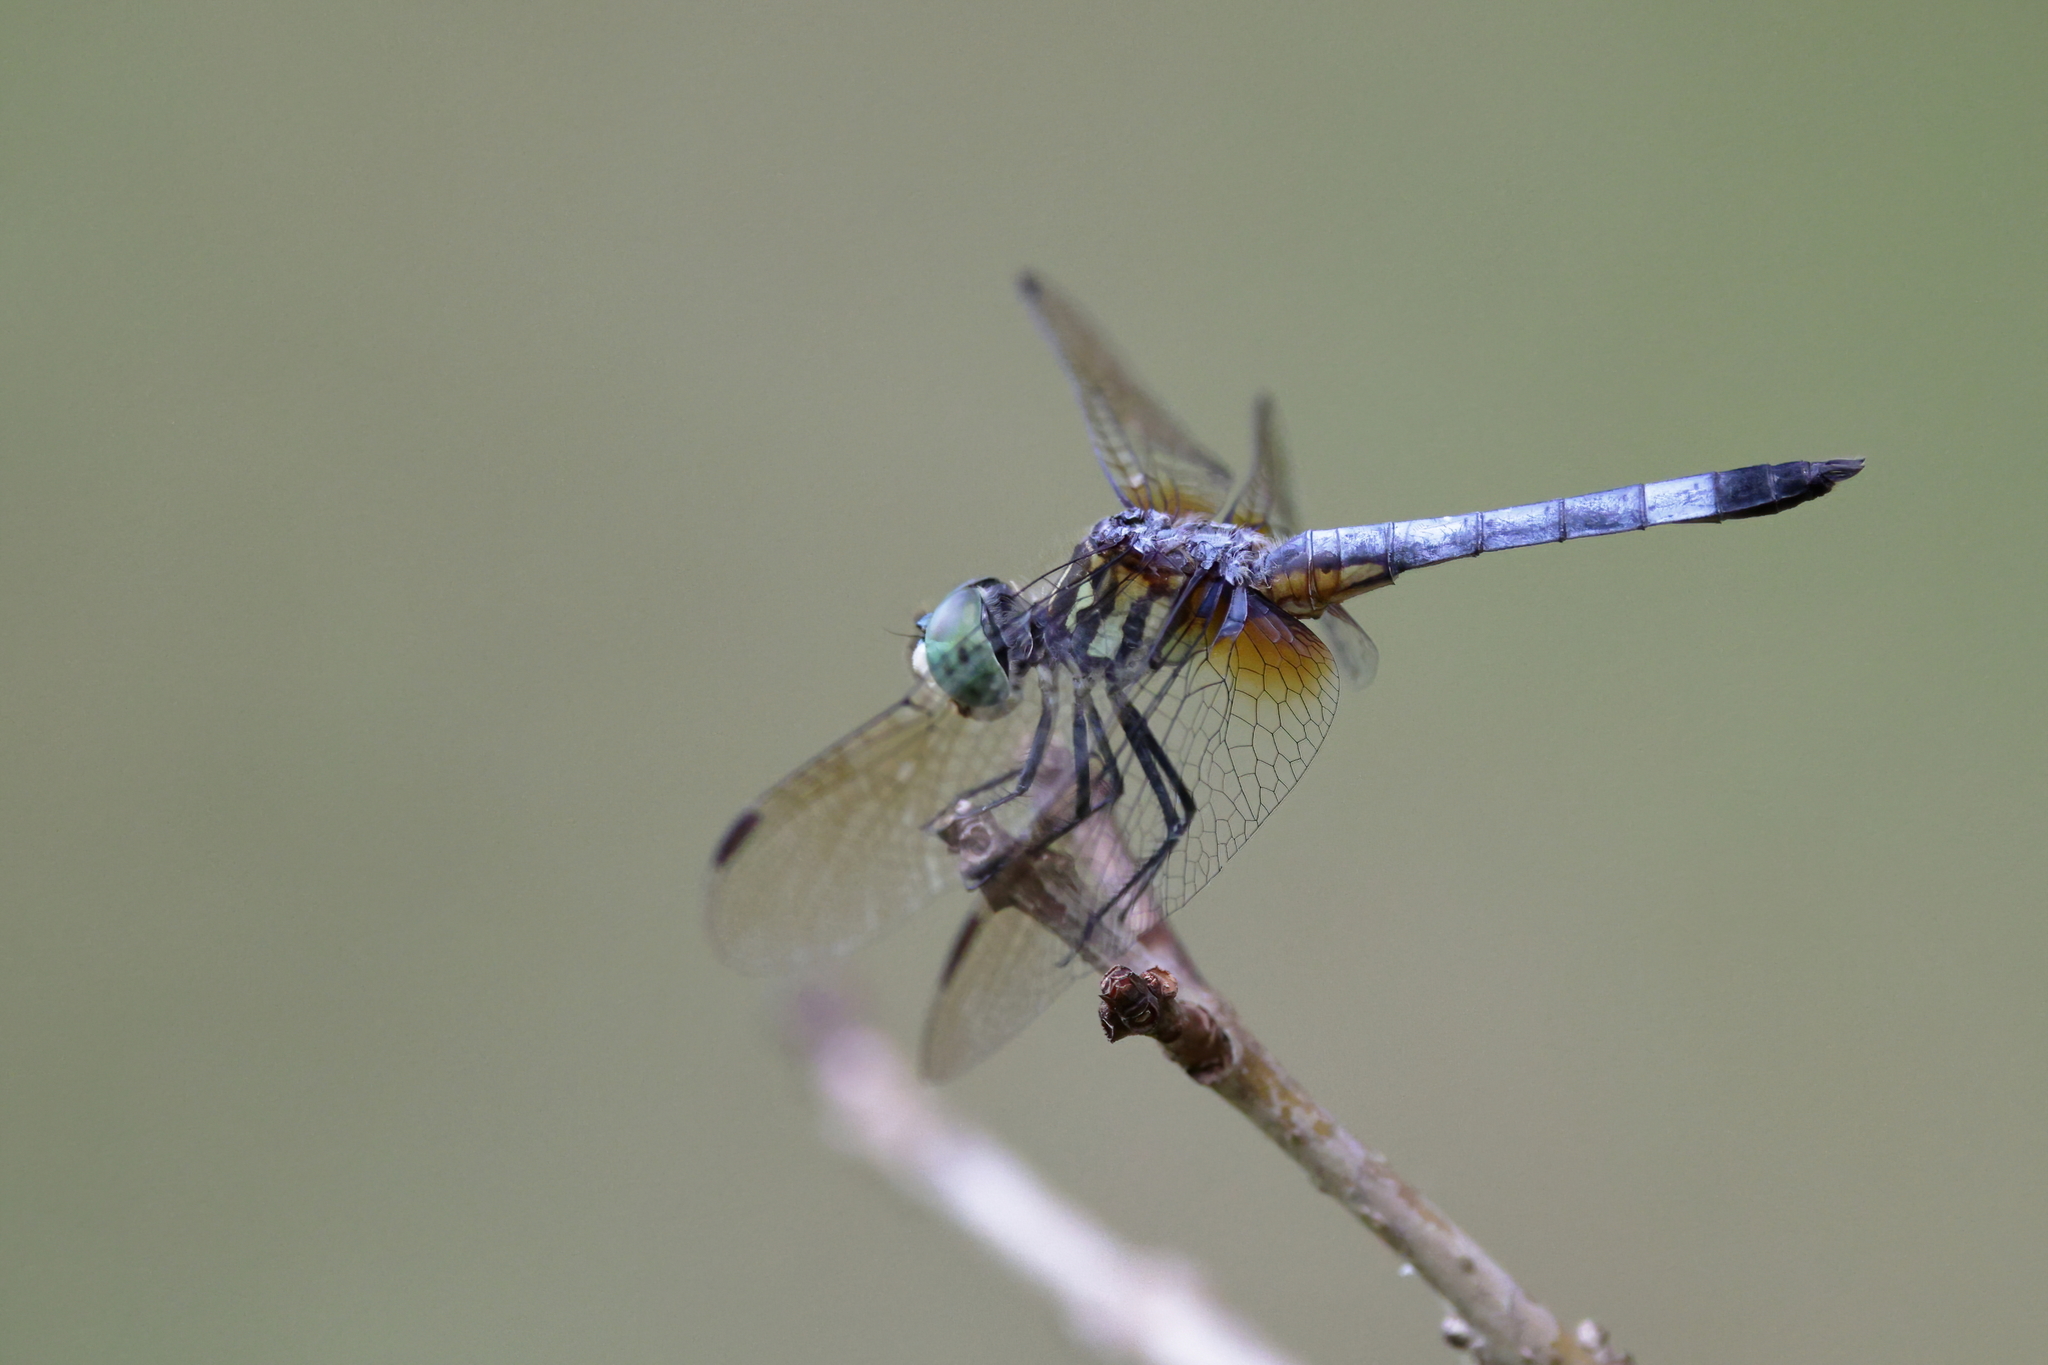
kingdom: Animalia
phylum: Arthropoda
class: Insecta
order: Odonata
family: Libellulidae
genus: Pachydiplax
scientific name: Pachydiplax longipennis
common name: Blue dasher
